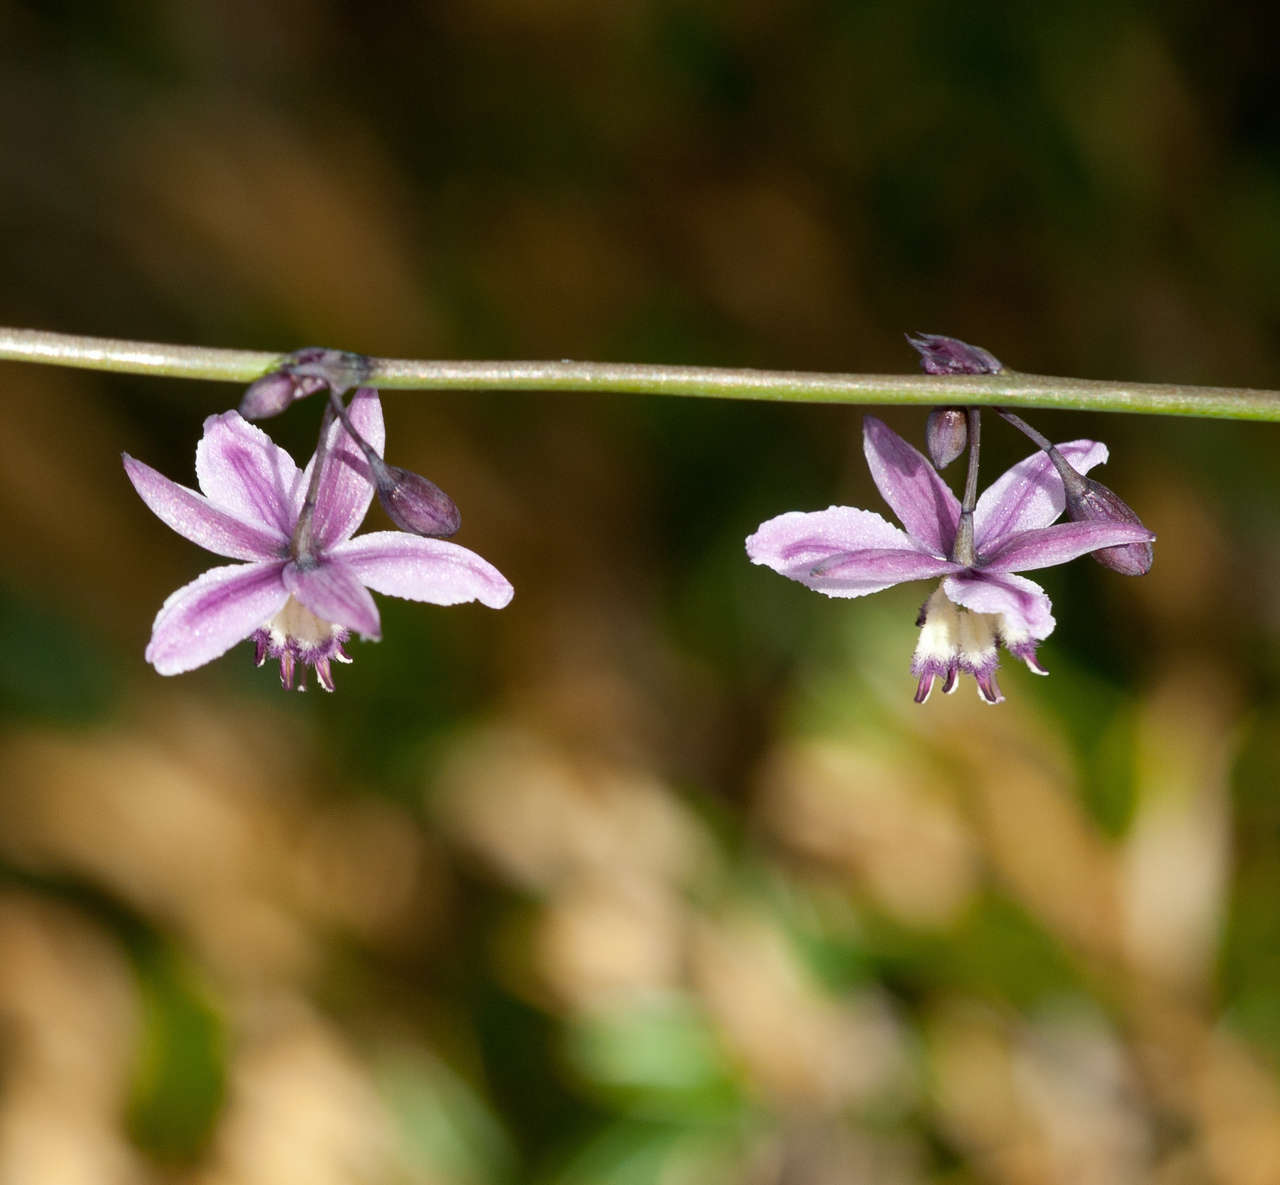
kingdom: Plantae
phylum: Tracheophyta
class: Liliopsida
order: Asparagales
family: Asparagaceae
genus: Arthropodium
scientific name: Arthropodium milleflorum
